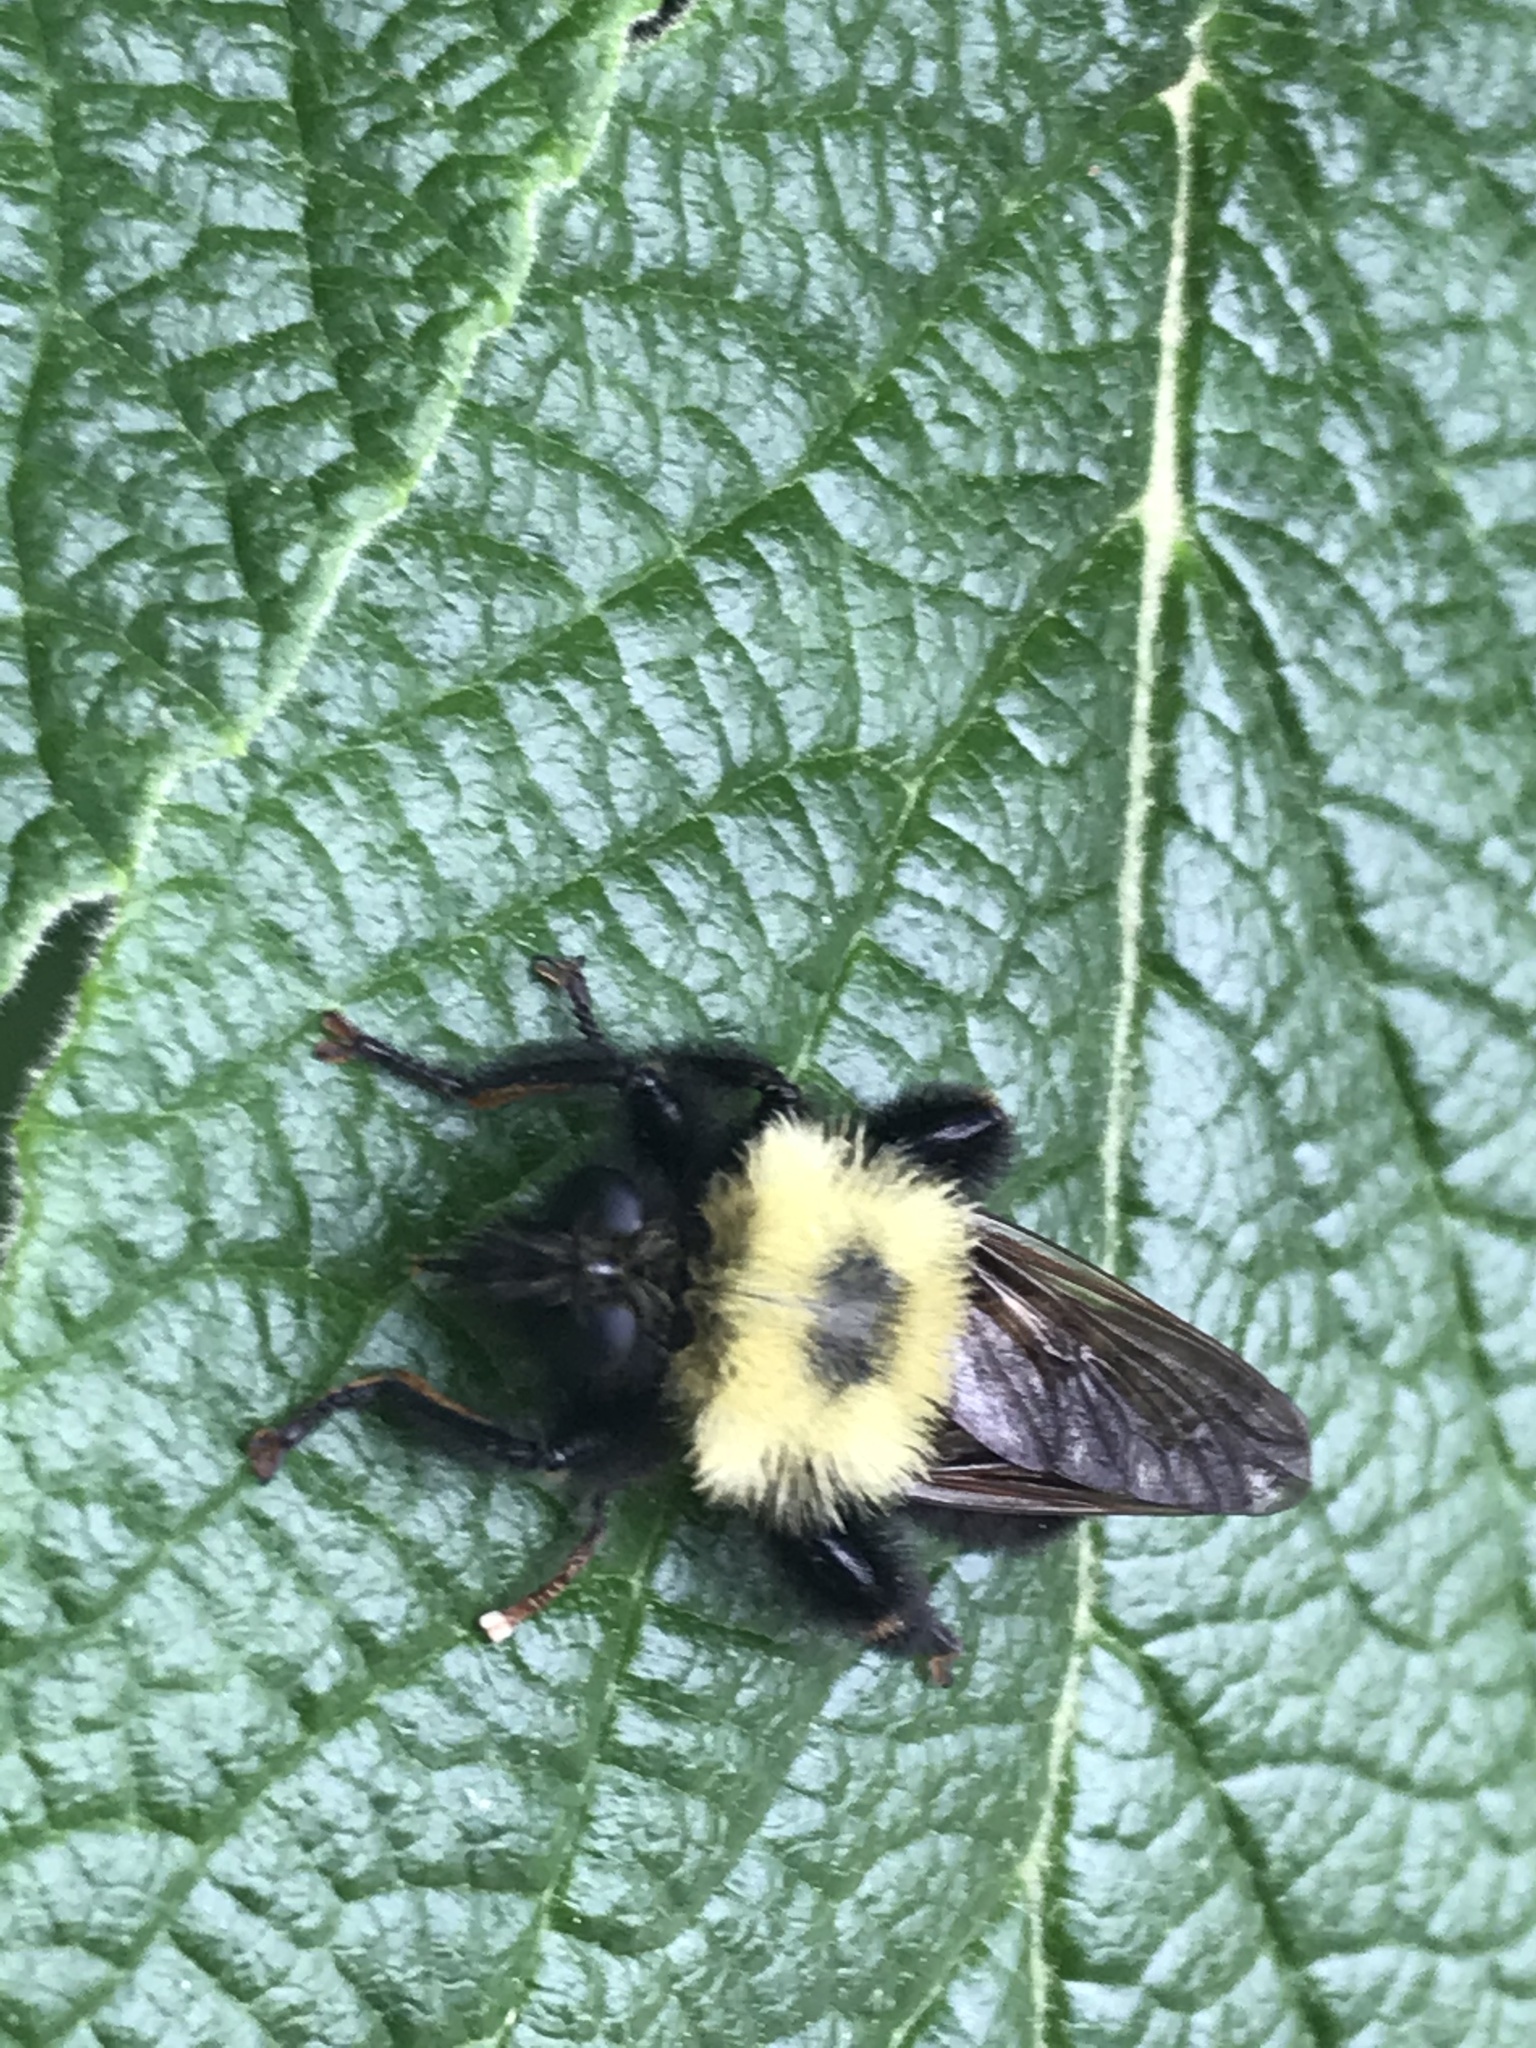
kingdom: Animalia
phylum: Arthropoda
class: Insecta
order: Diptera
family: Asilidae
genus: Laphria
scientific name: Laphria thoracica
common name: Bumble bee mimic robber fly
